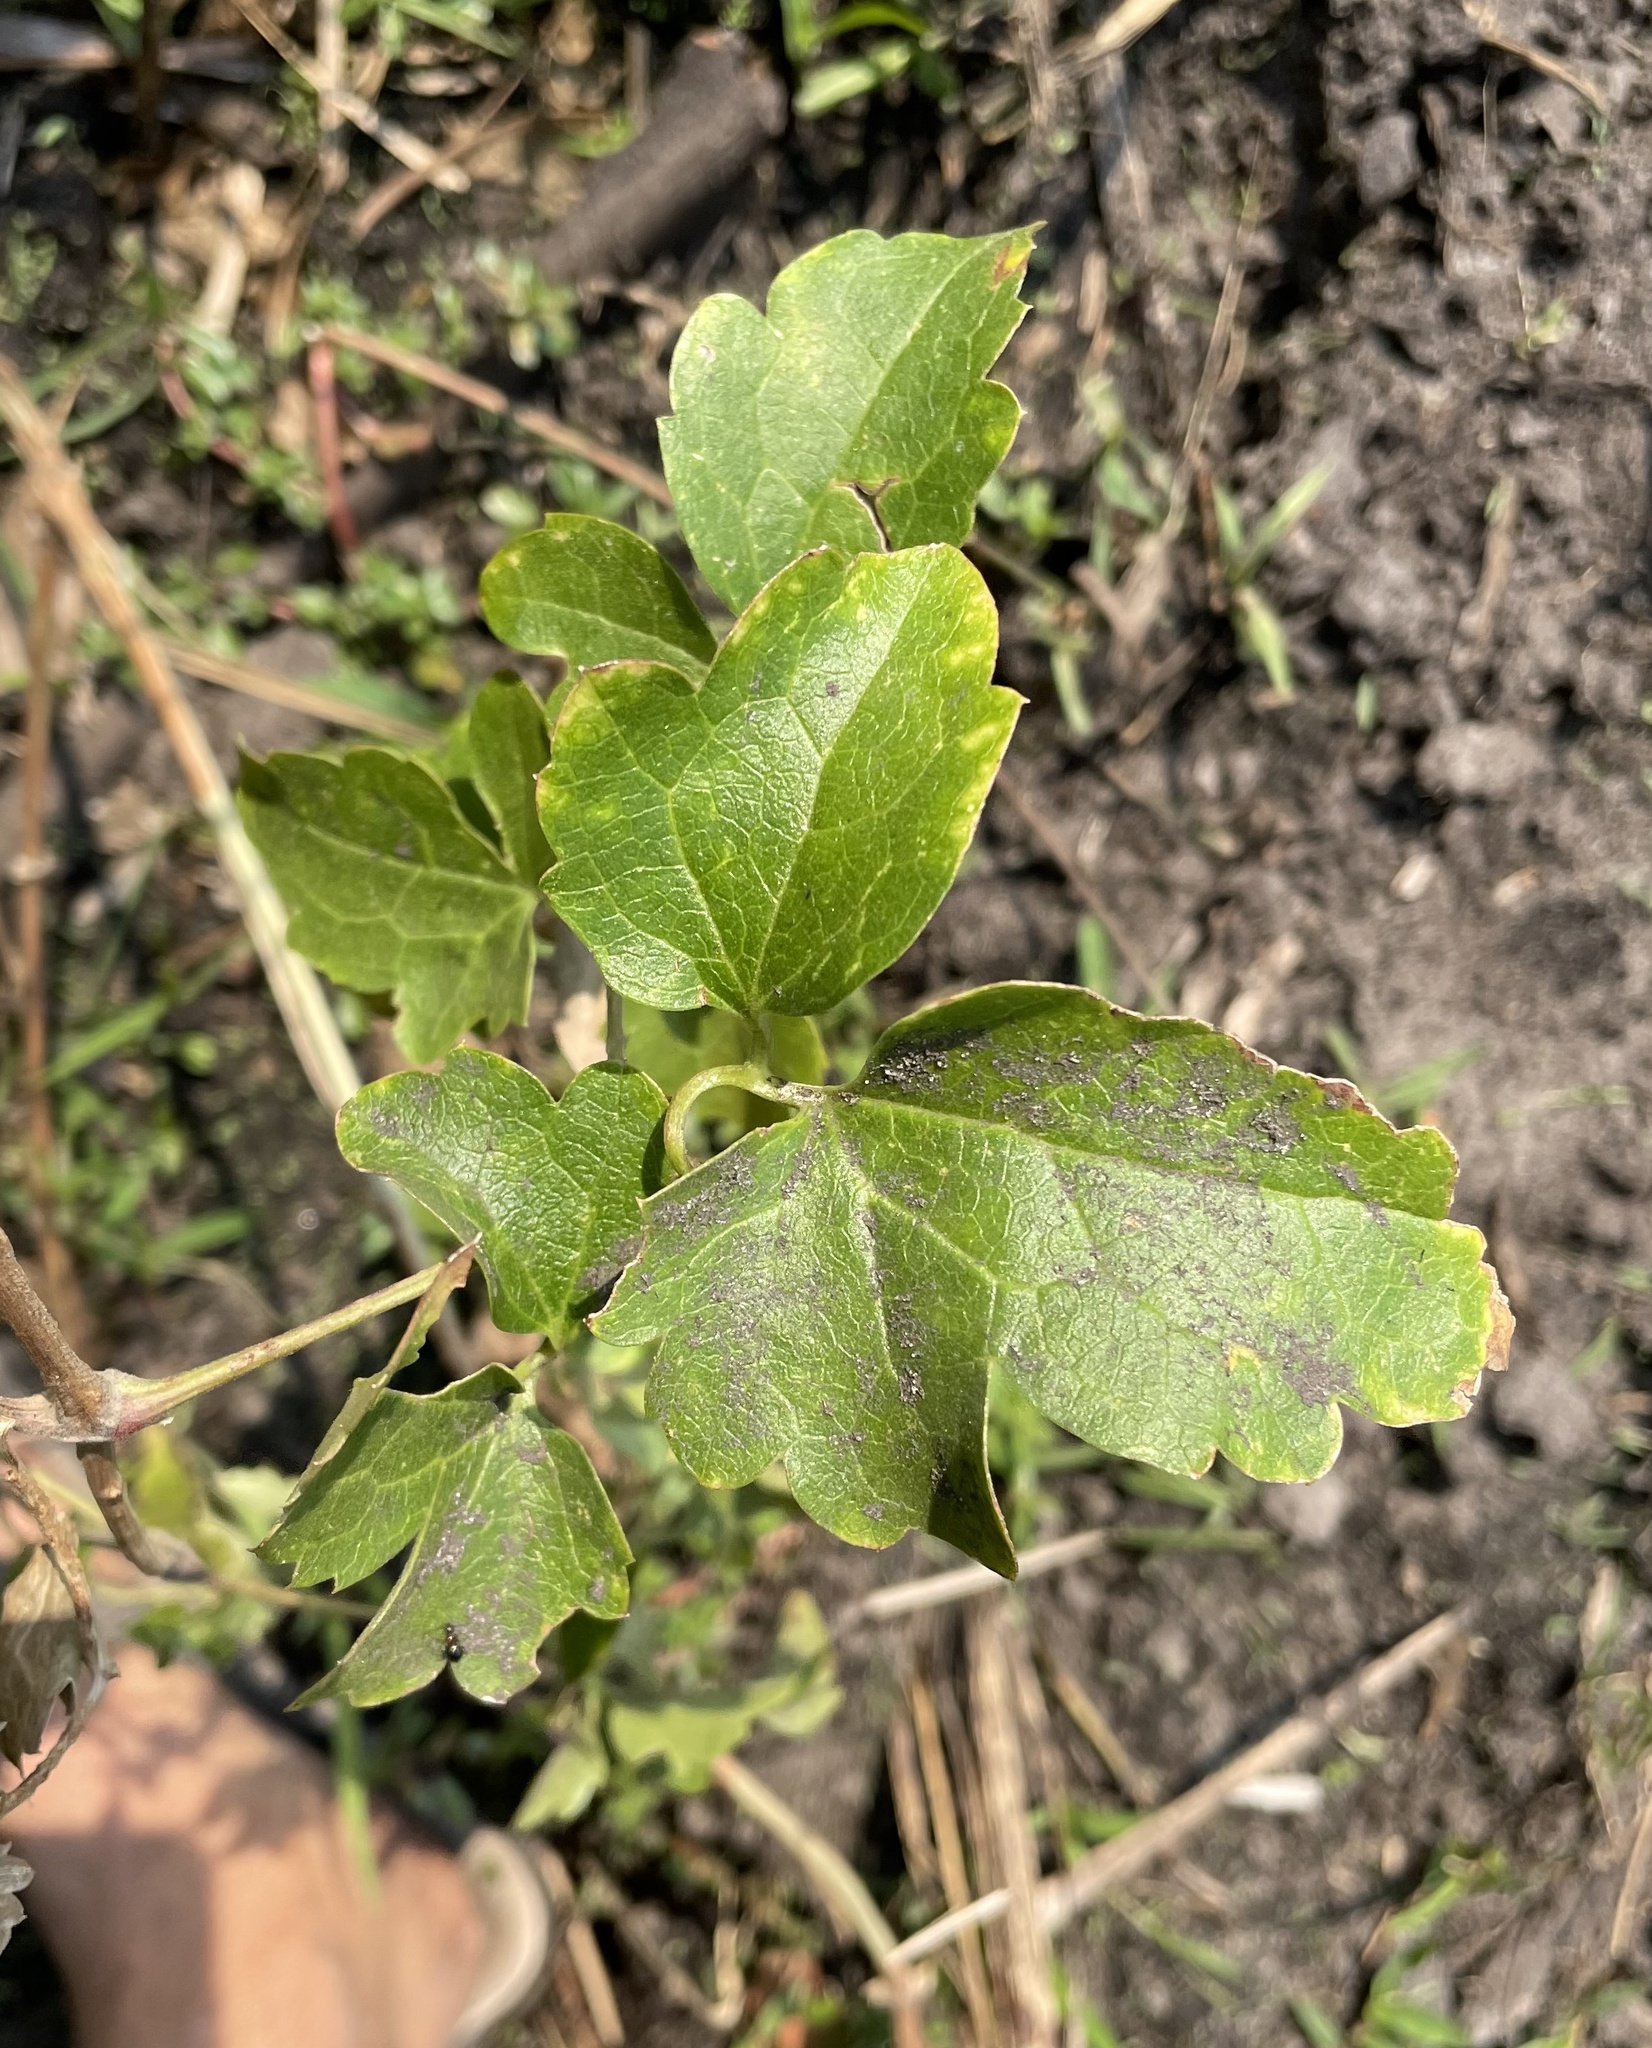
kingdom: Plantae
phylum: Tracheophyta
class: Magnoliopsida
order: Ranunculales
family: Ranunculaceae
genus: Clematis
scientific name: Clematis brachiata
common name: Traveler's-joy
